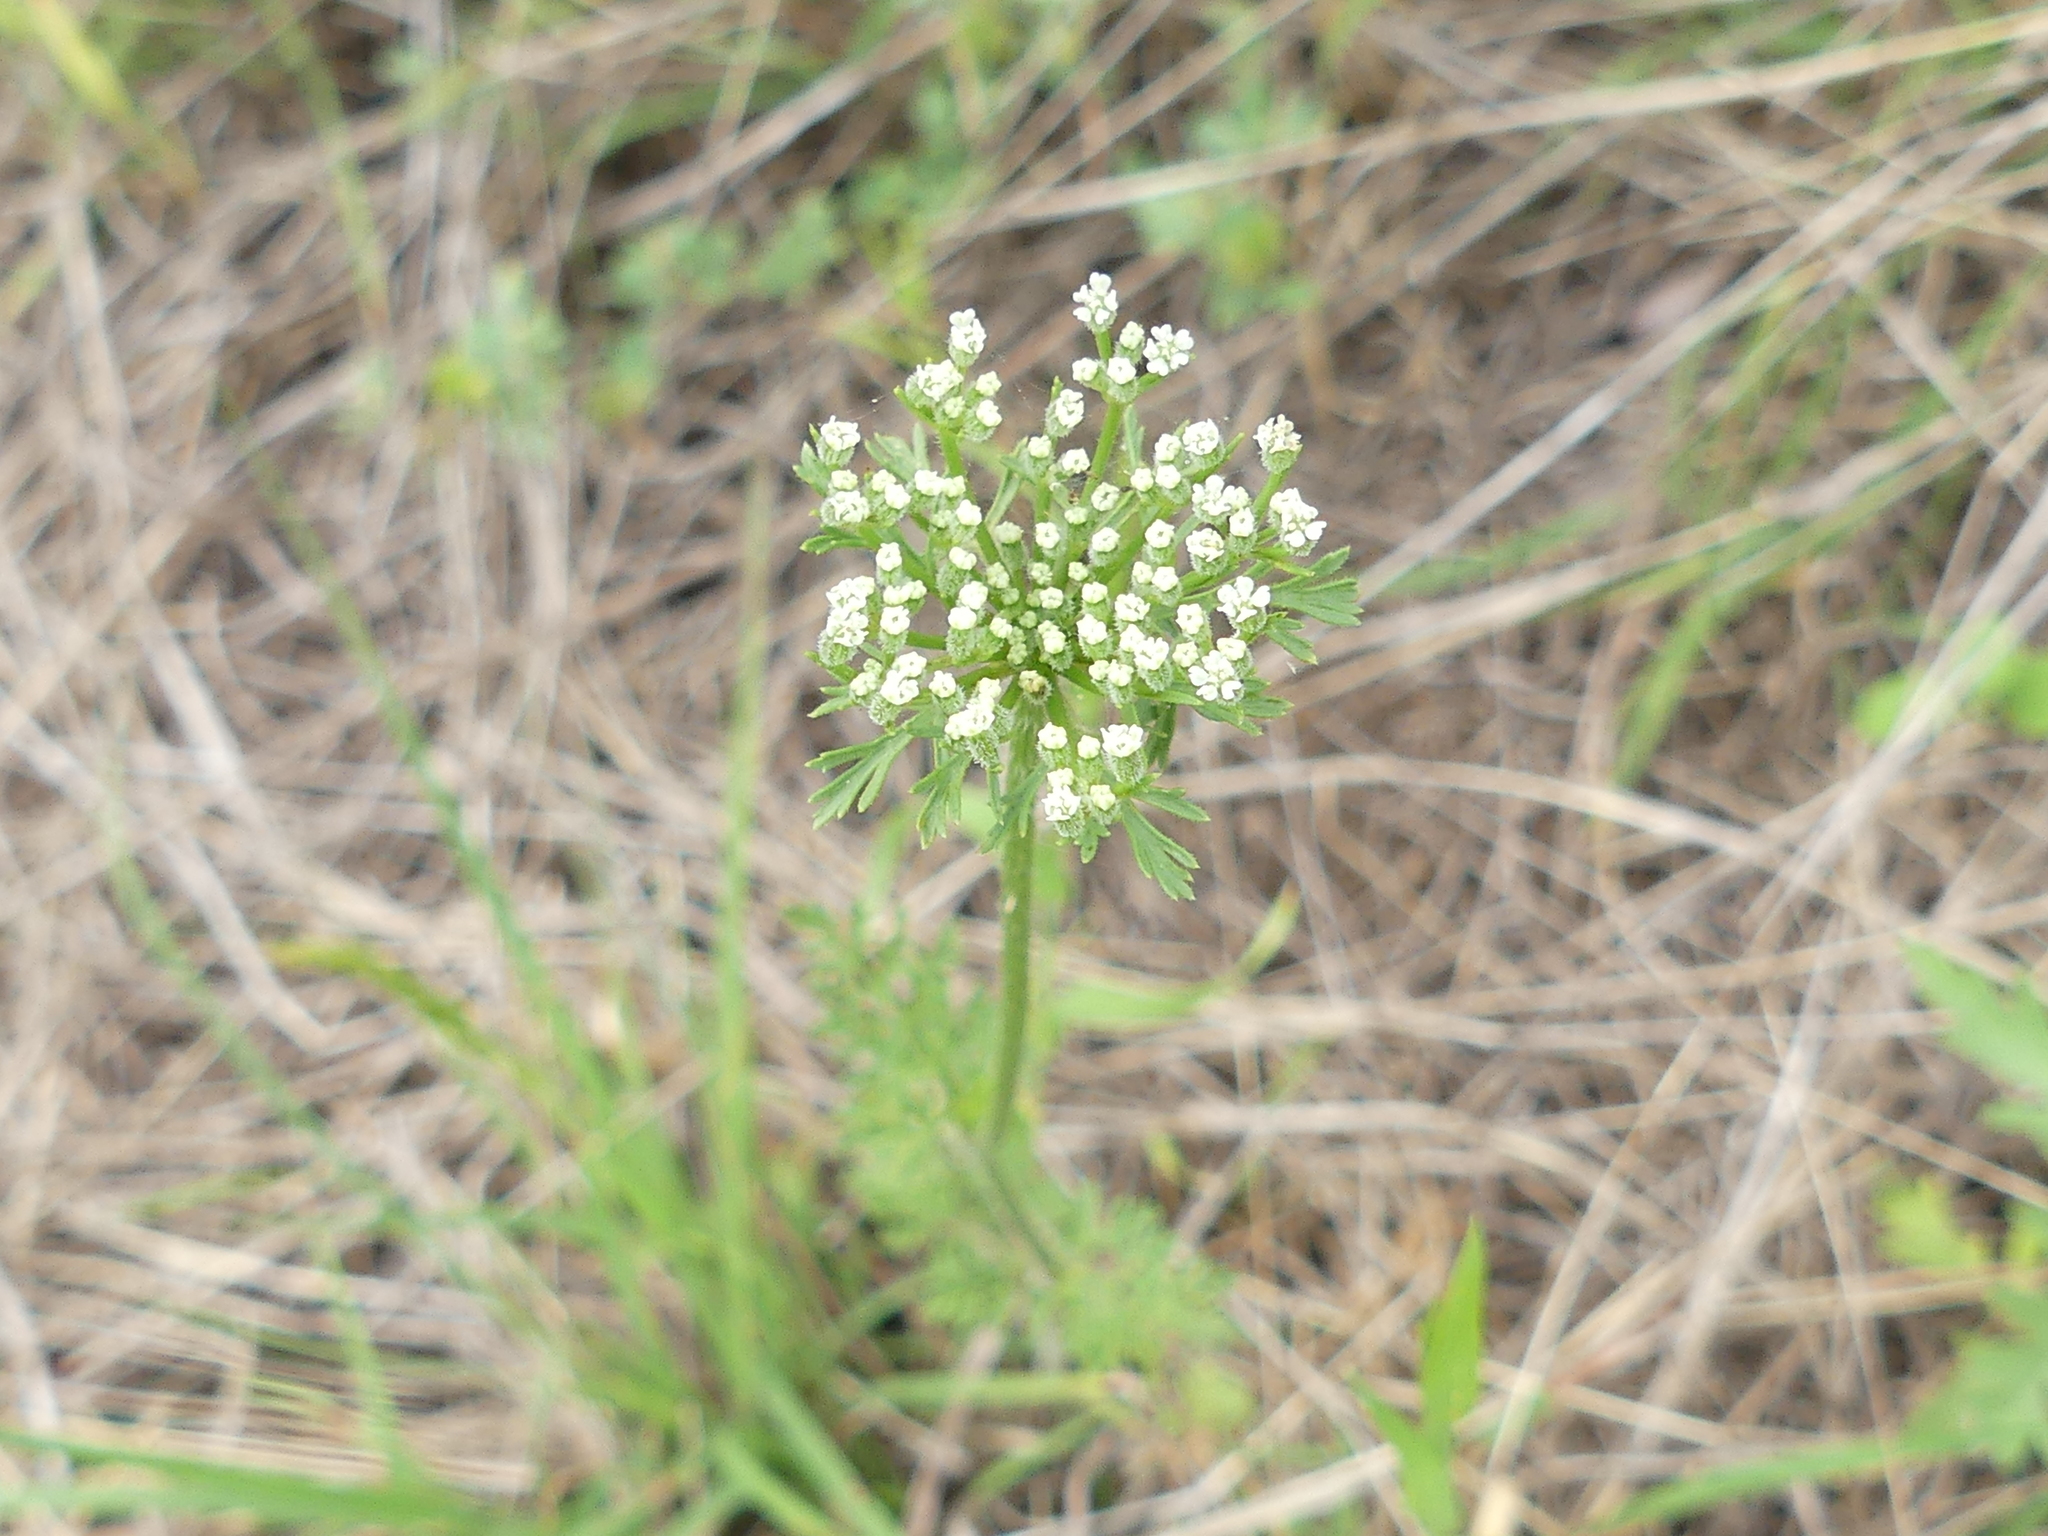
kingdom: Plantae
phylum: Tracheophyta
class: Magnoliopsida
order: Apiales
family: Apiaceae
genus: Daucus
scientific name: Daucus pusillus
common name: Southwest wild carrot
